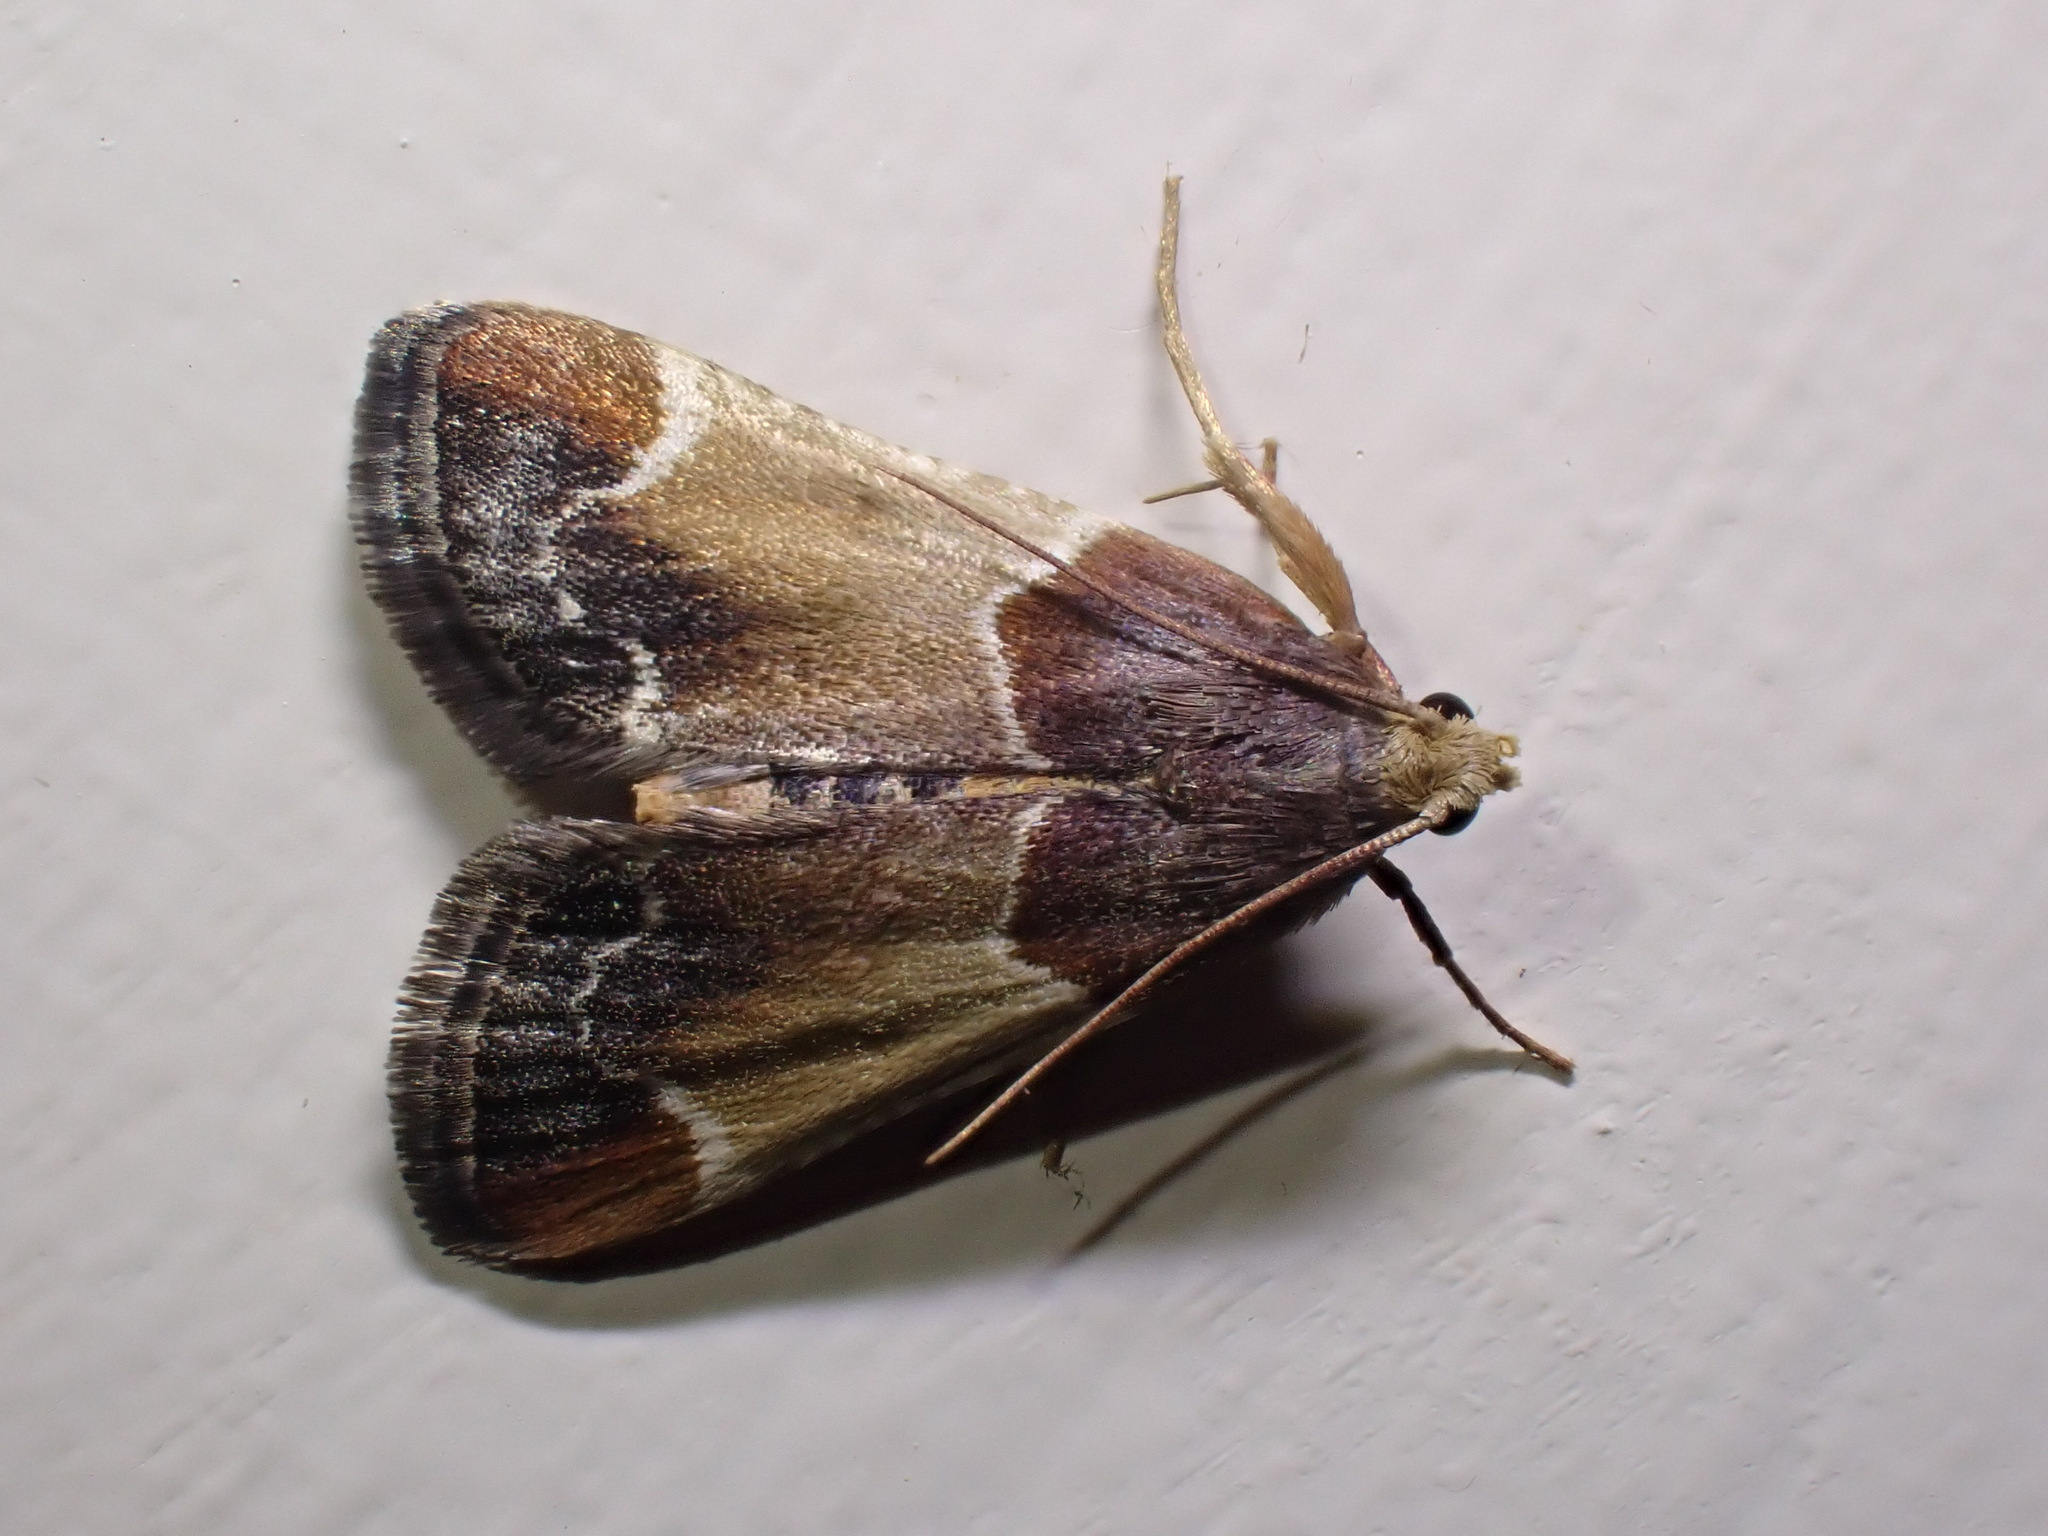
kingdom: Animalia
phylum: Arthropoda
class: Insecta
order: Lepidoptera
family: Pyralidae
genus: Pyralis
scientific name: Pyralis farinalis
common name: Meal moth
